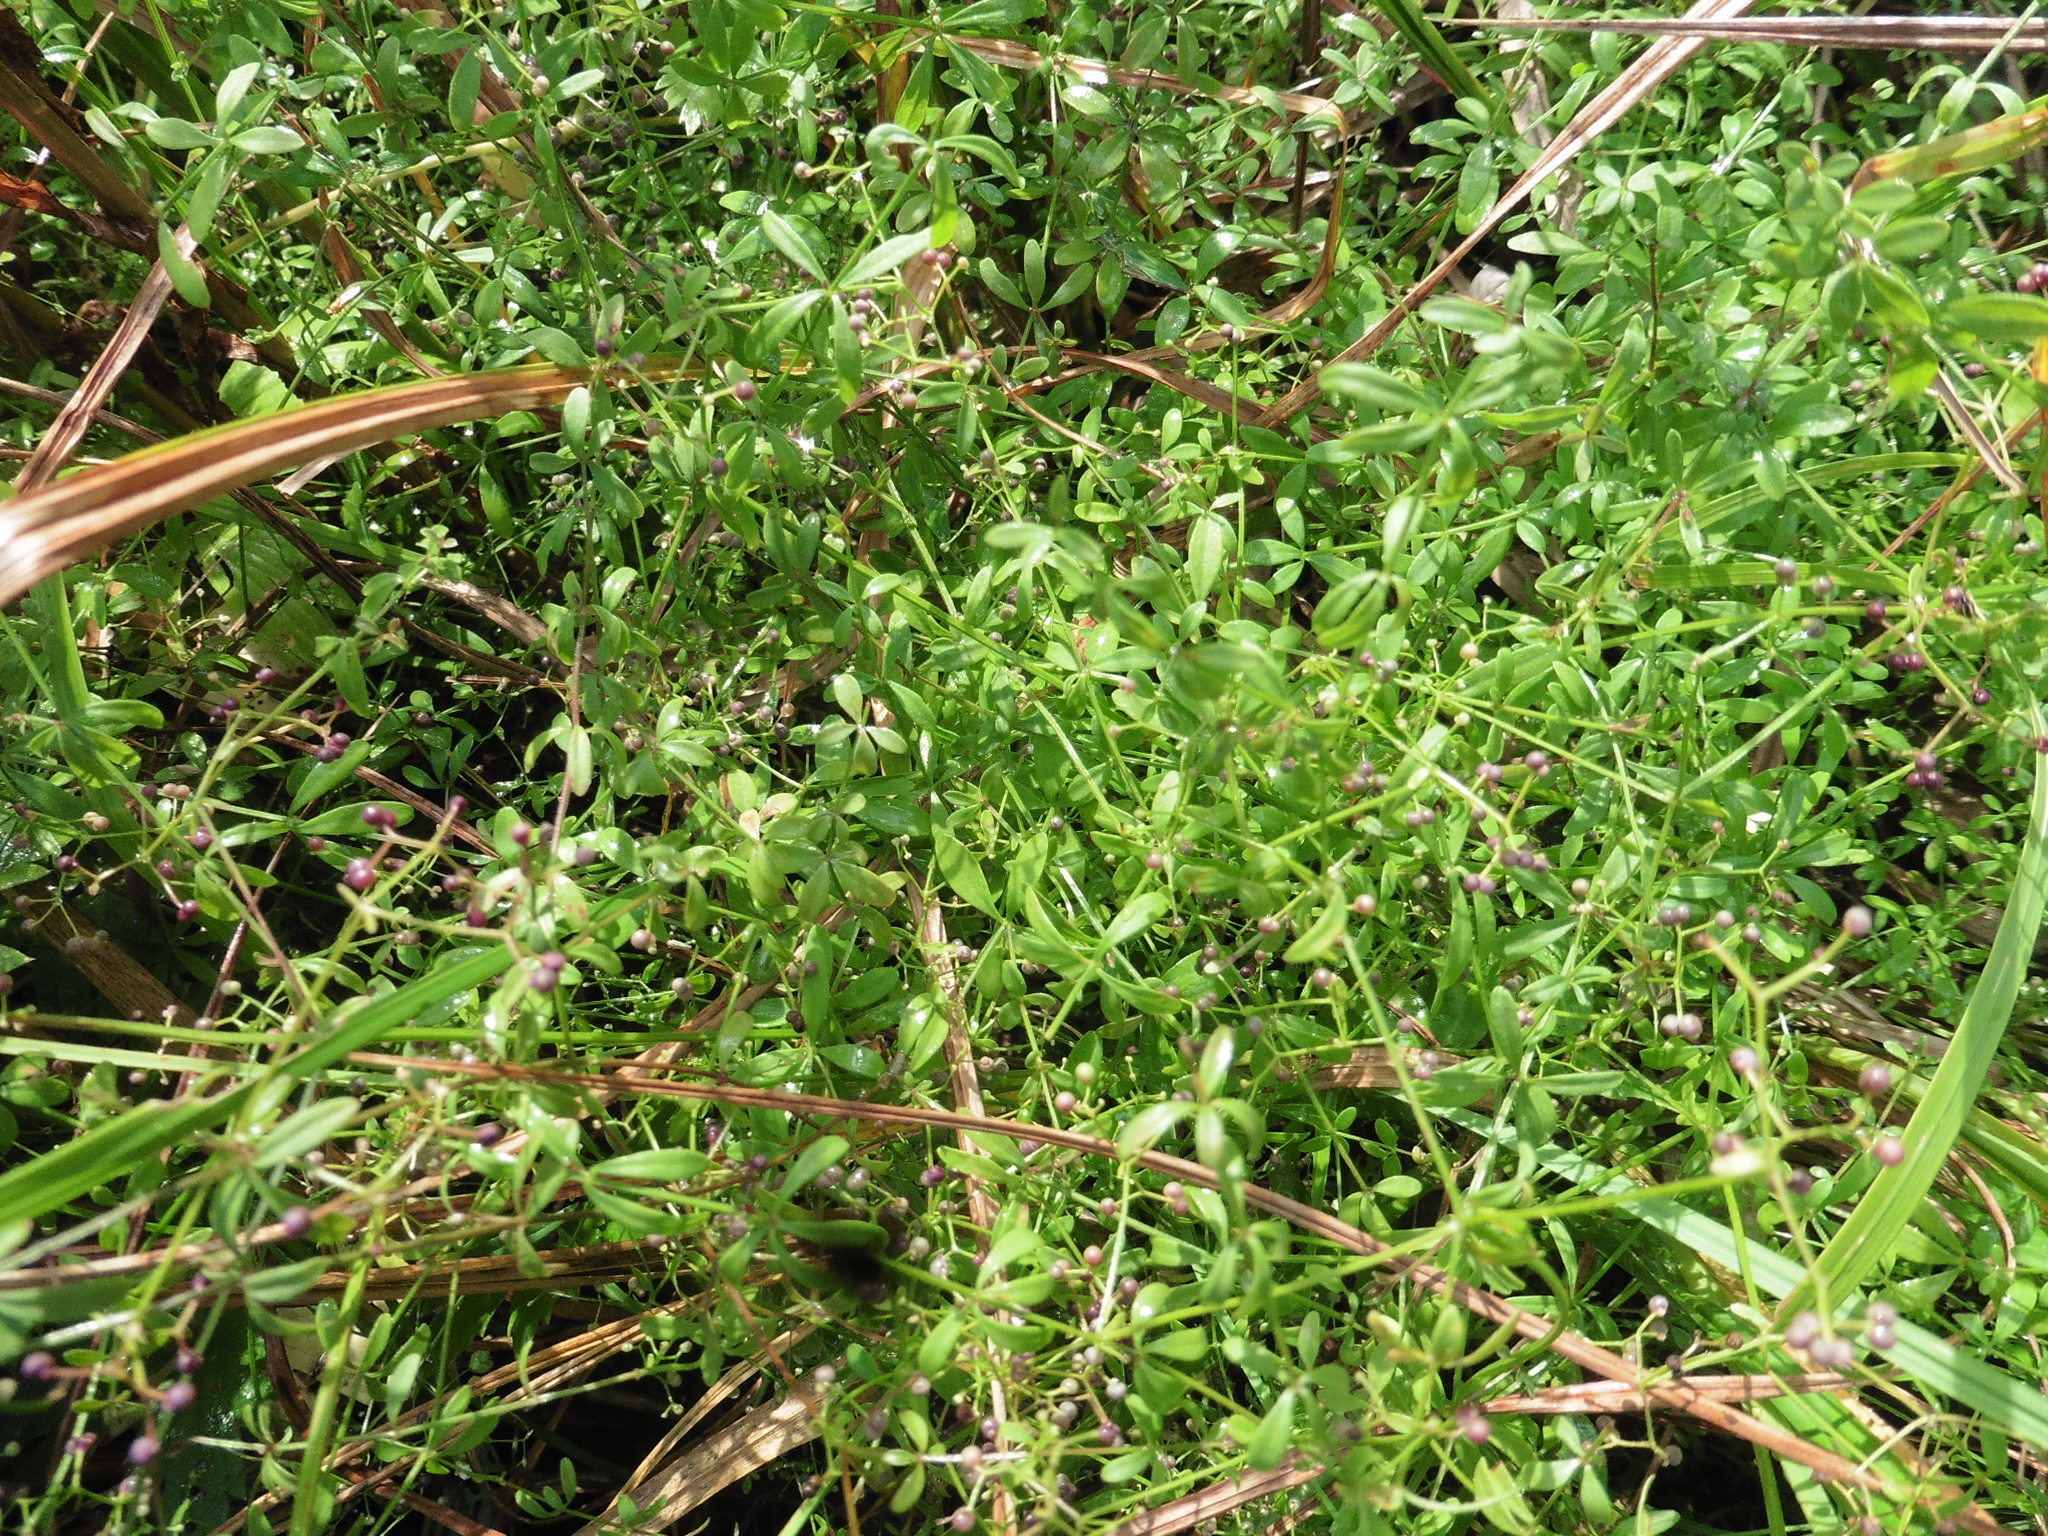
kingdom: Plantae
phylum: Tracheophyta
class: Magnoliopsida
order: Gentianales
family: Rubiaceae
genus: Galium
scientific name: Galium palustre
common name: Common marsh-bedstraw
